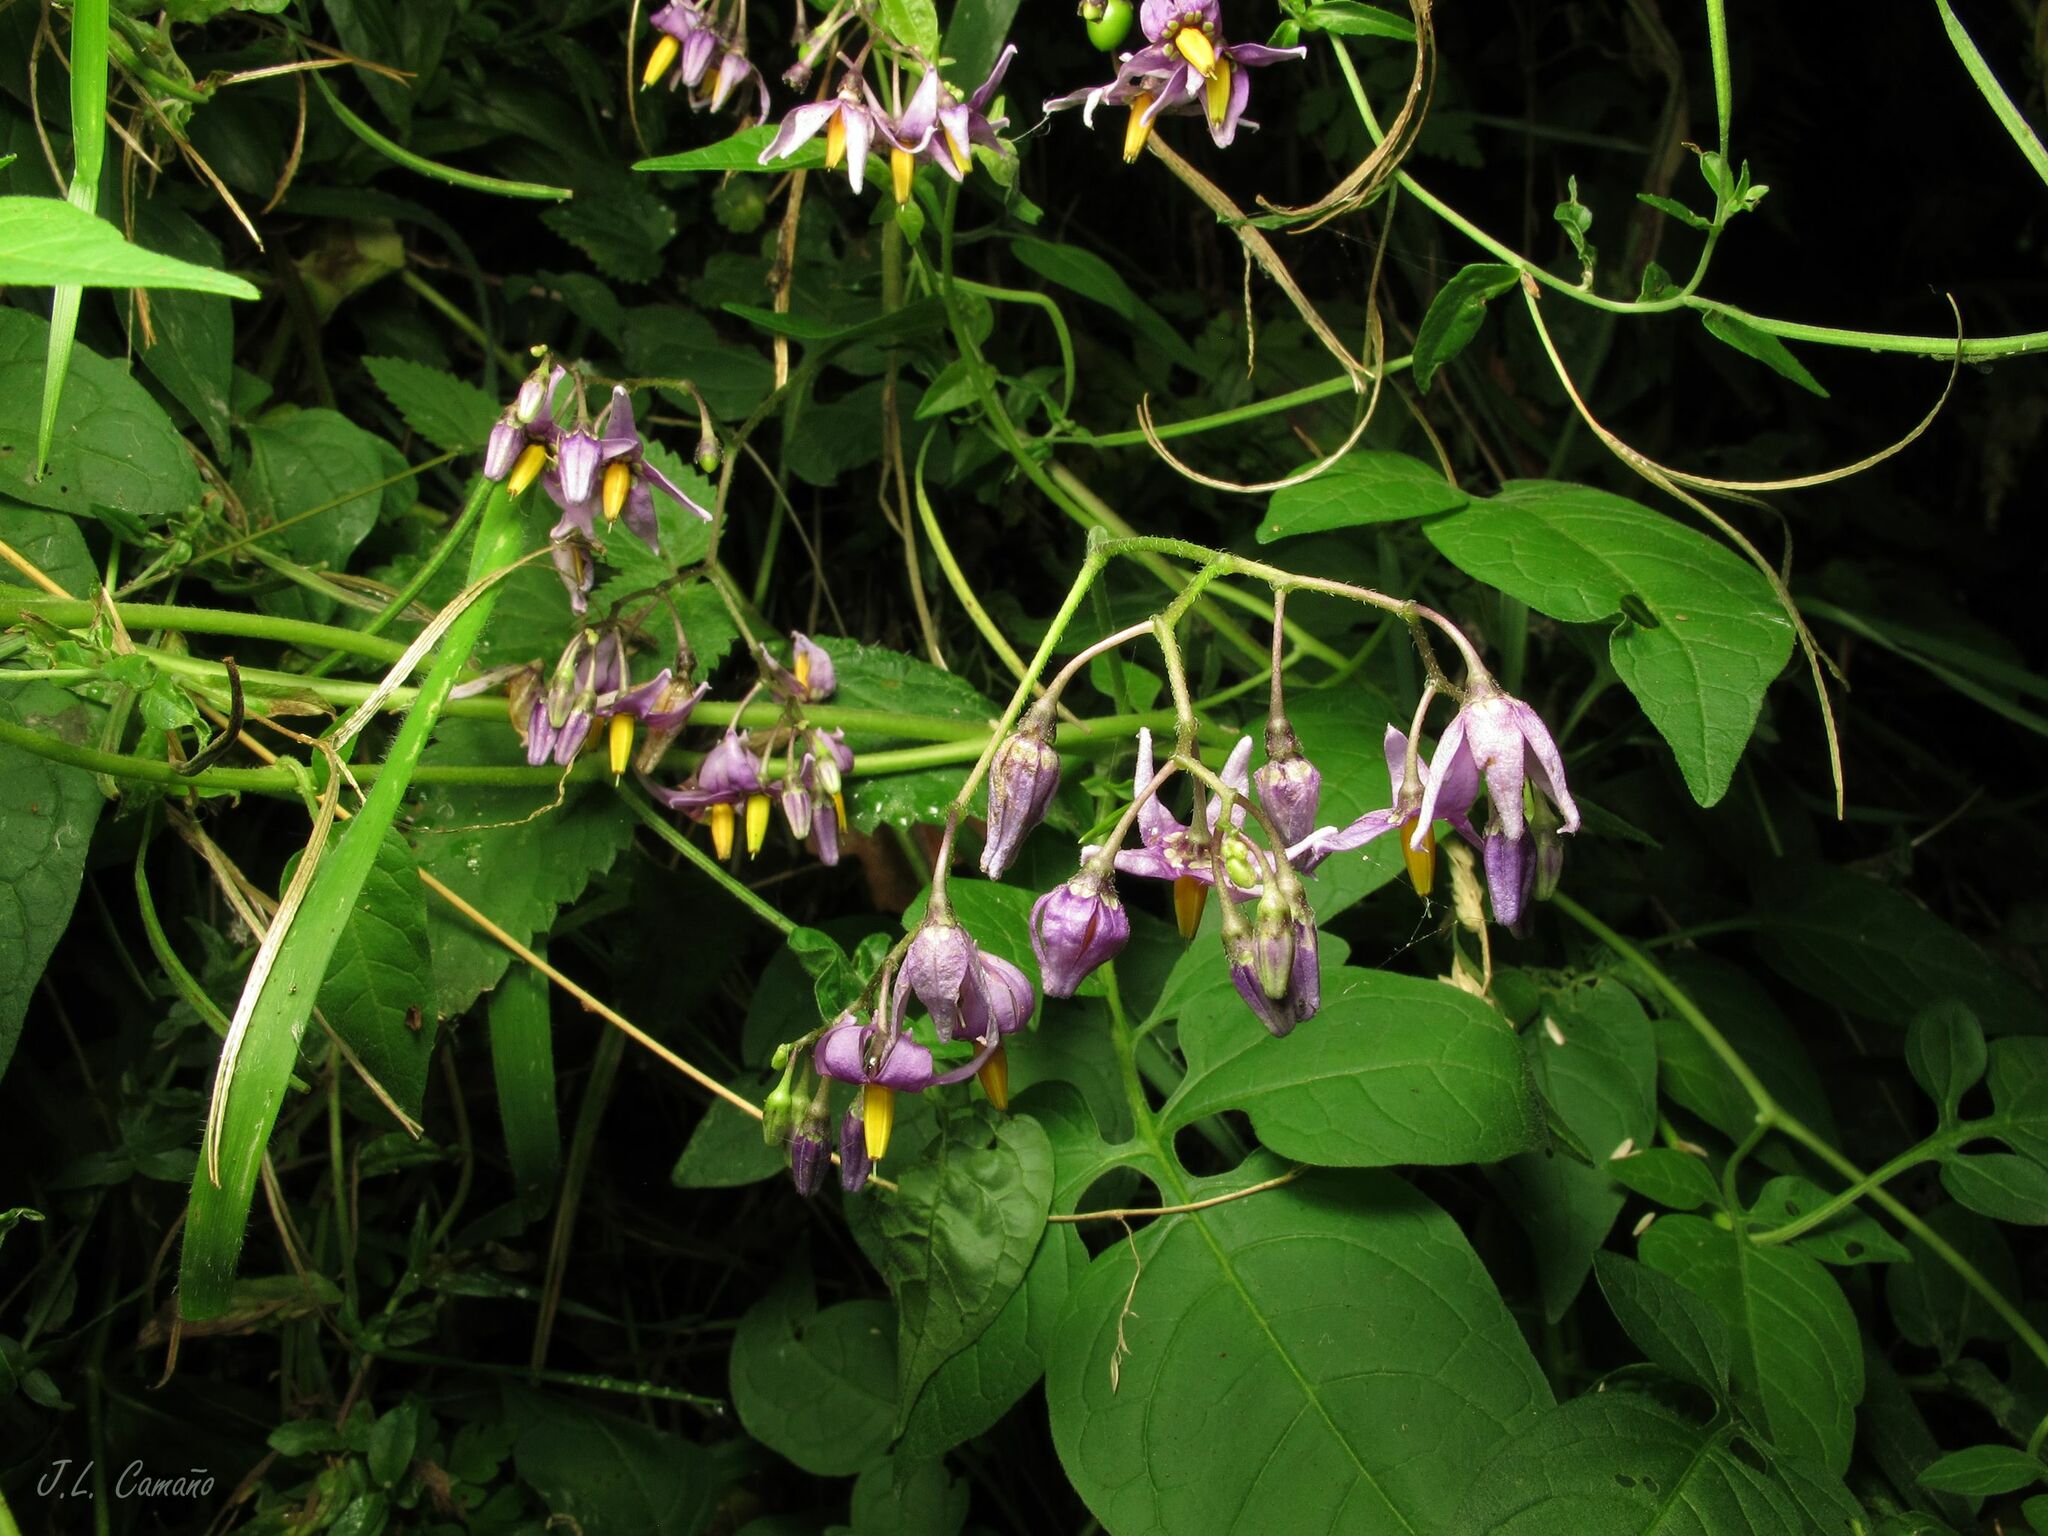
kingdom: Plantae
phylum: Tracheophyta
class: Magnoliopsida
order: Solanales
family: Solanaceae
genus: Solanum
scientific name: Solanum dulcamara
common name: Climbing nightshade
